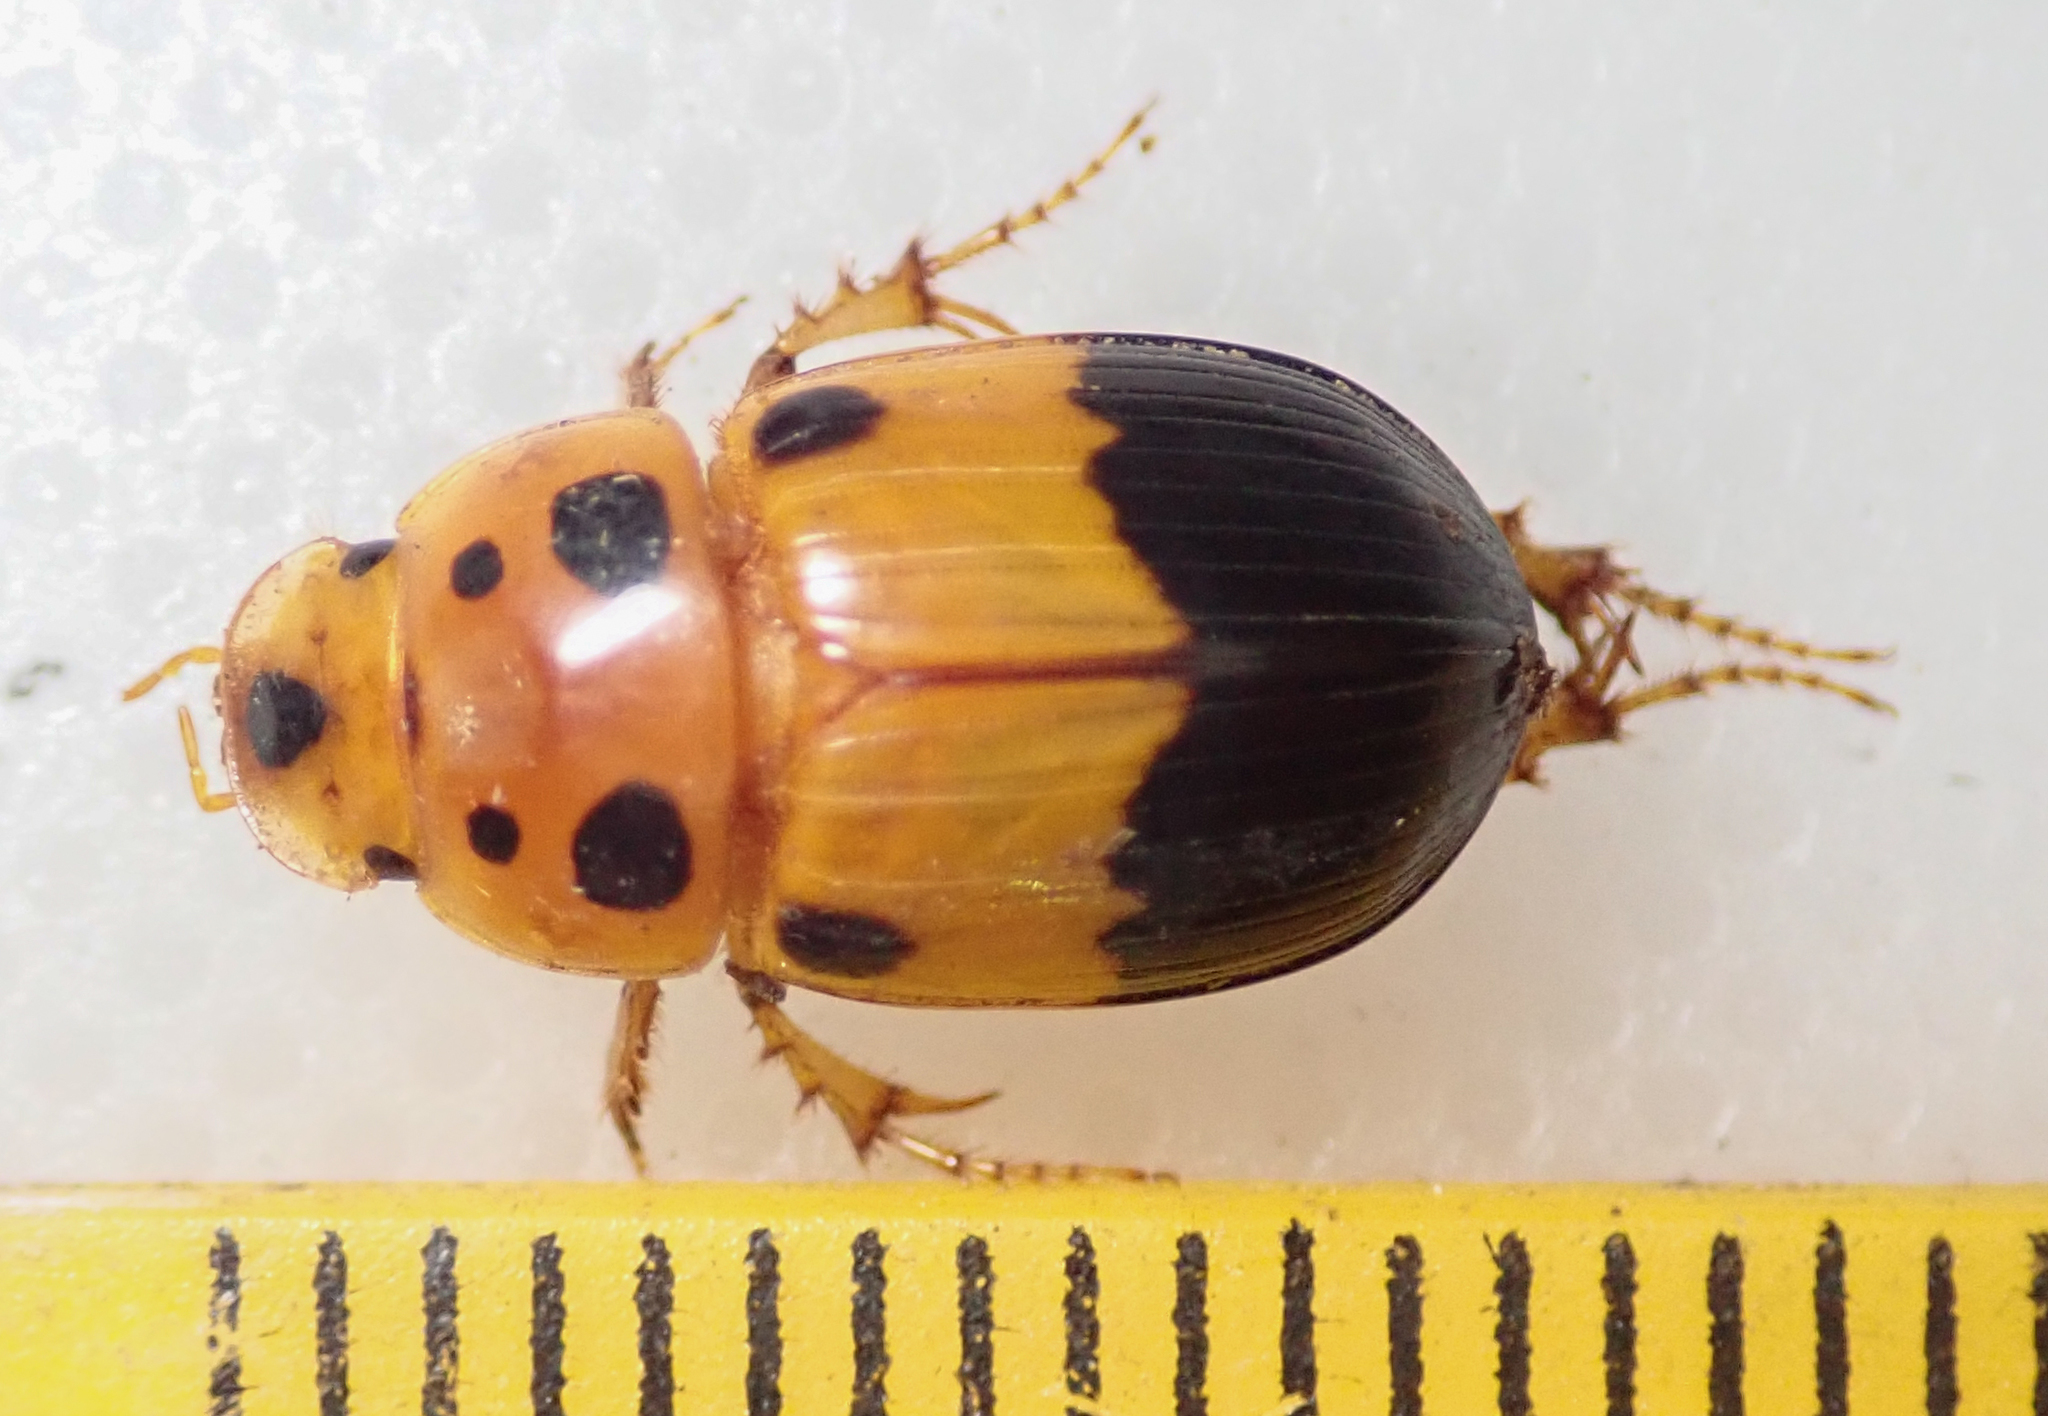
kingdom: Animalia
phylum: Arthropoda
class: Insecta
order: Coleoptera
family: Scarabaeidae
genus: Adeloparius
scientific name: Adeloparius septemmaculatus
